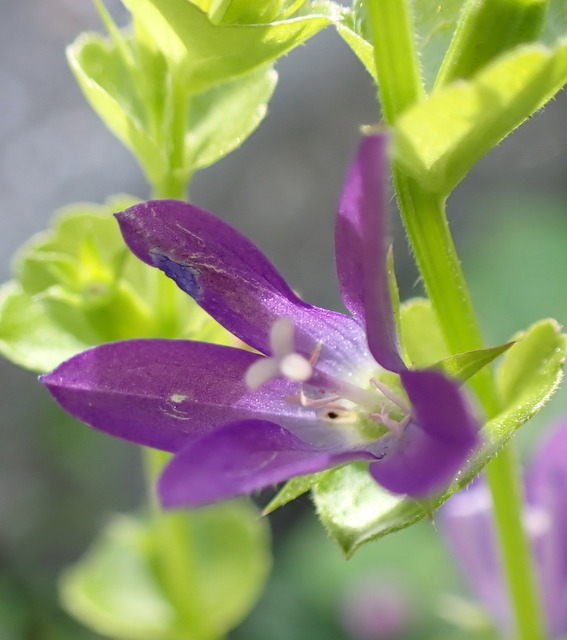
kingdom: Plantae
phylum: Tracheophyta
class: Magnoliopsida
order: Asterales
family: Campanulaceae
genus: Triodanis
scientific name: Triodanis perfoliata
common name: Clasping venus' looking-glass
